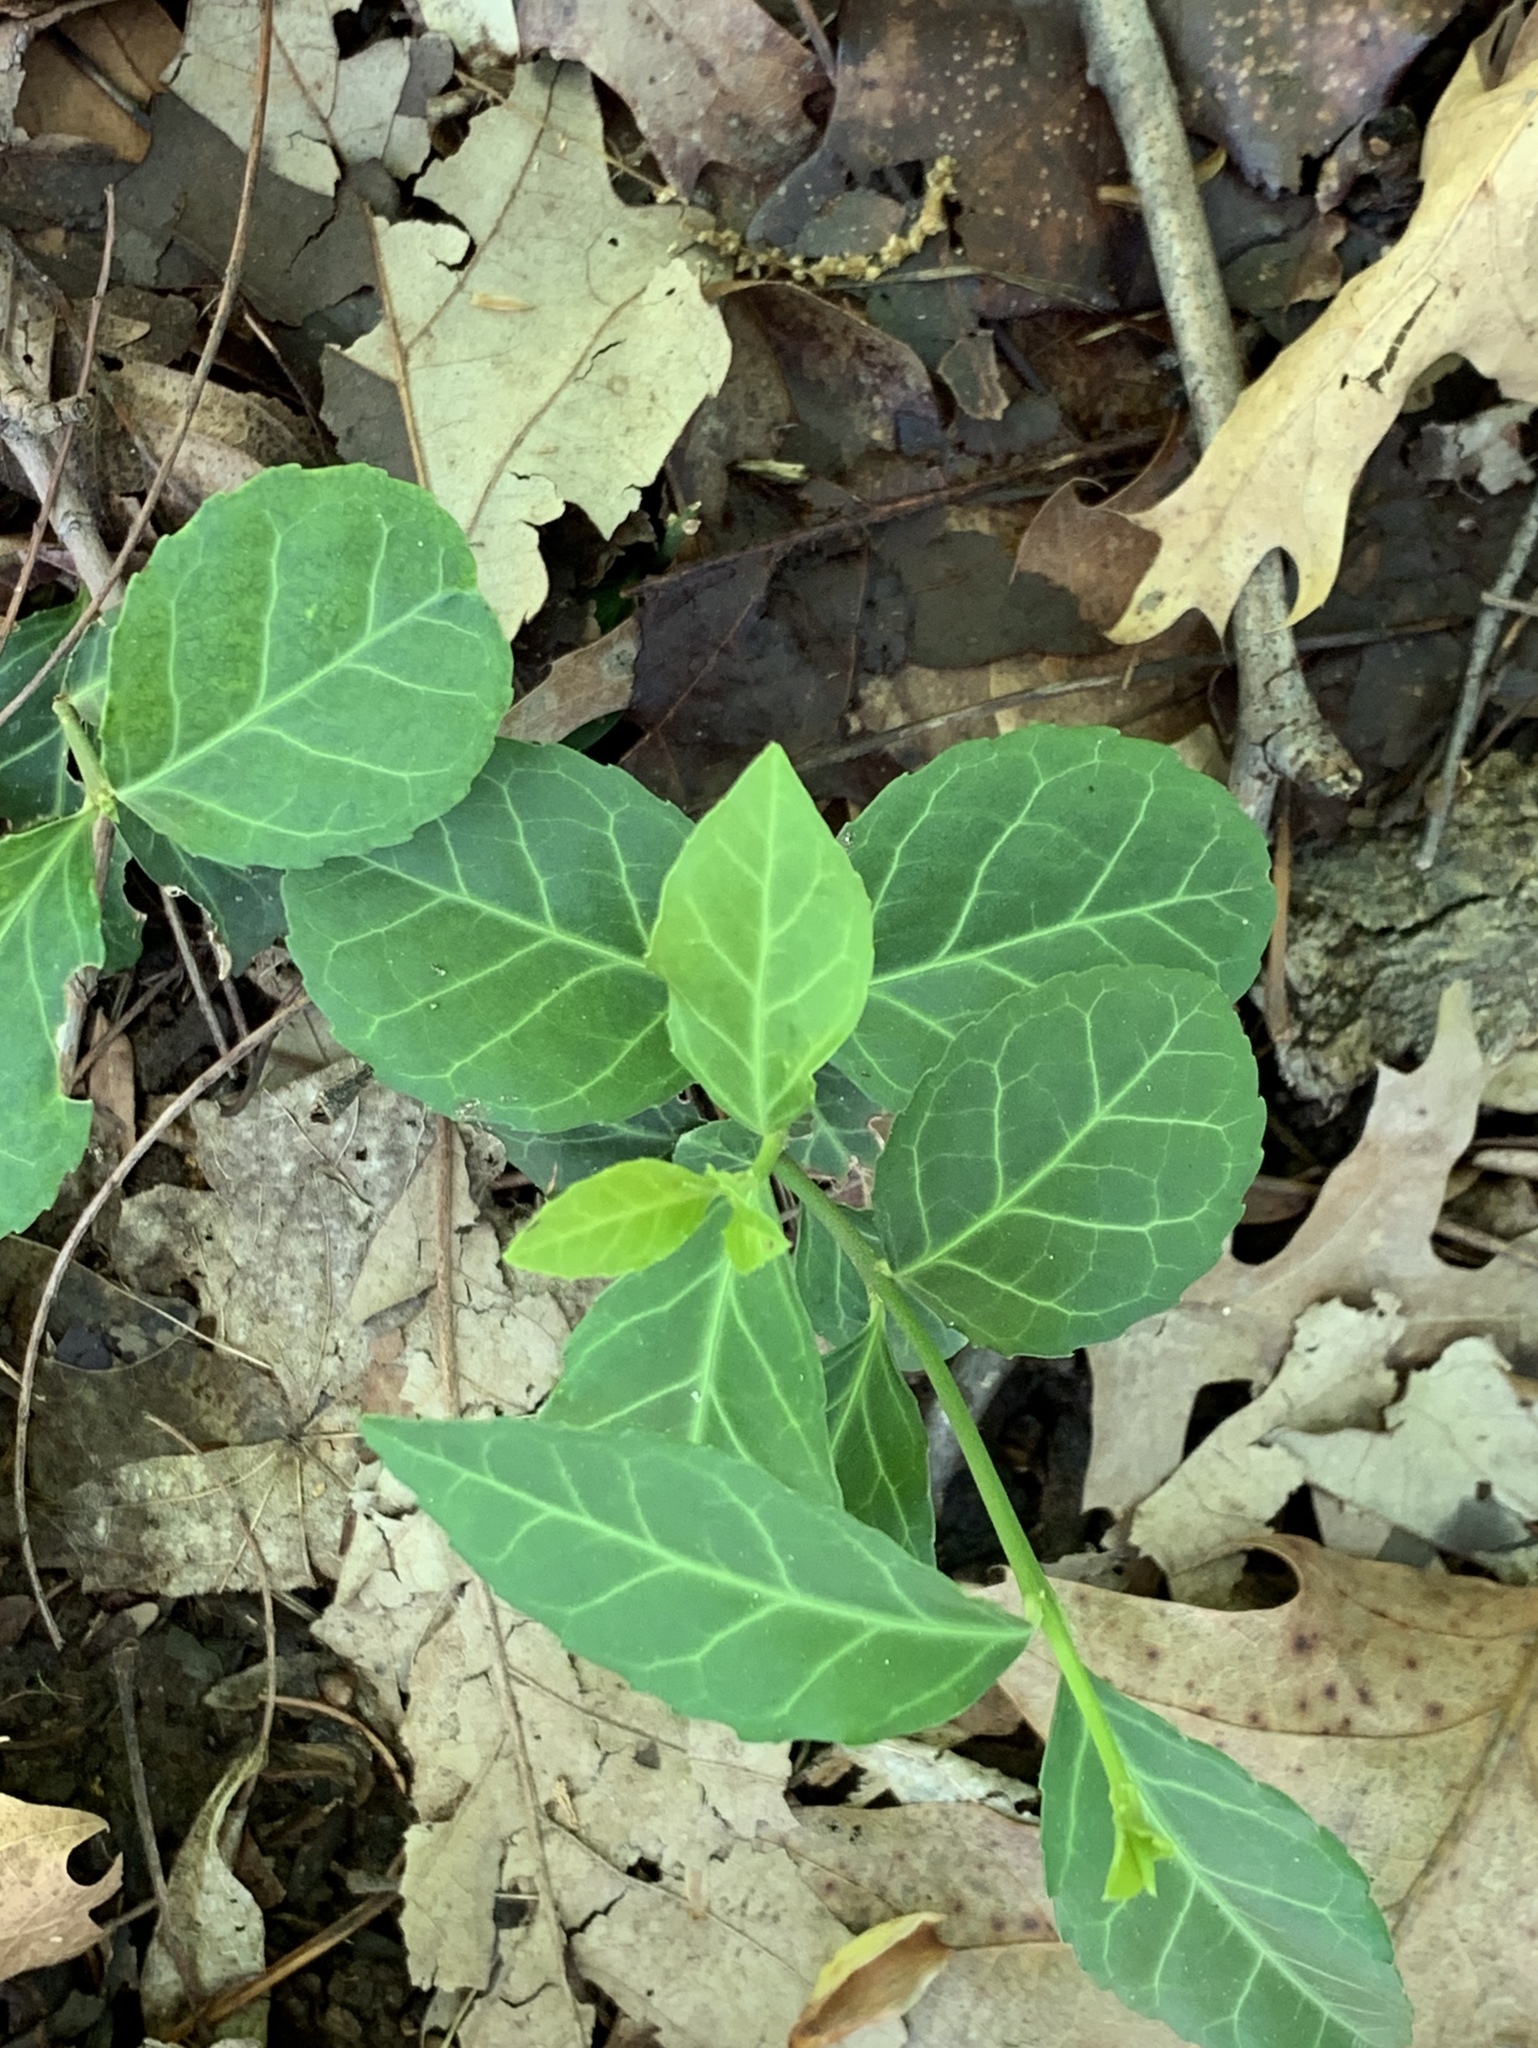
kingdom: Plantae
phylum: Tracheophyta
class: Magnoliopsida
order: Celastrales
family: Celastraceae
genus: Euonymus
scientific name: Euonymus fortunei
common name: Climbing euonymus
